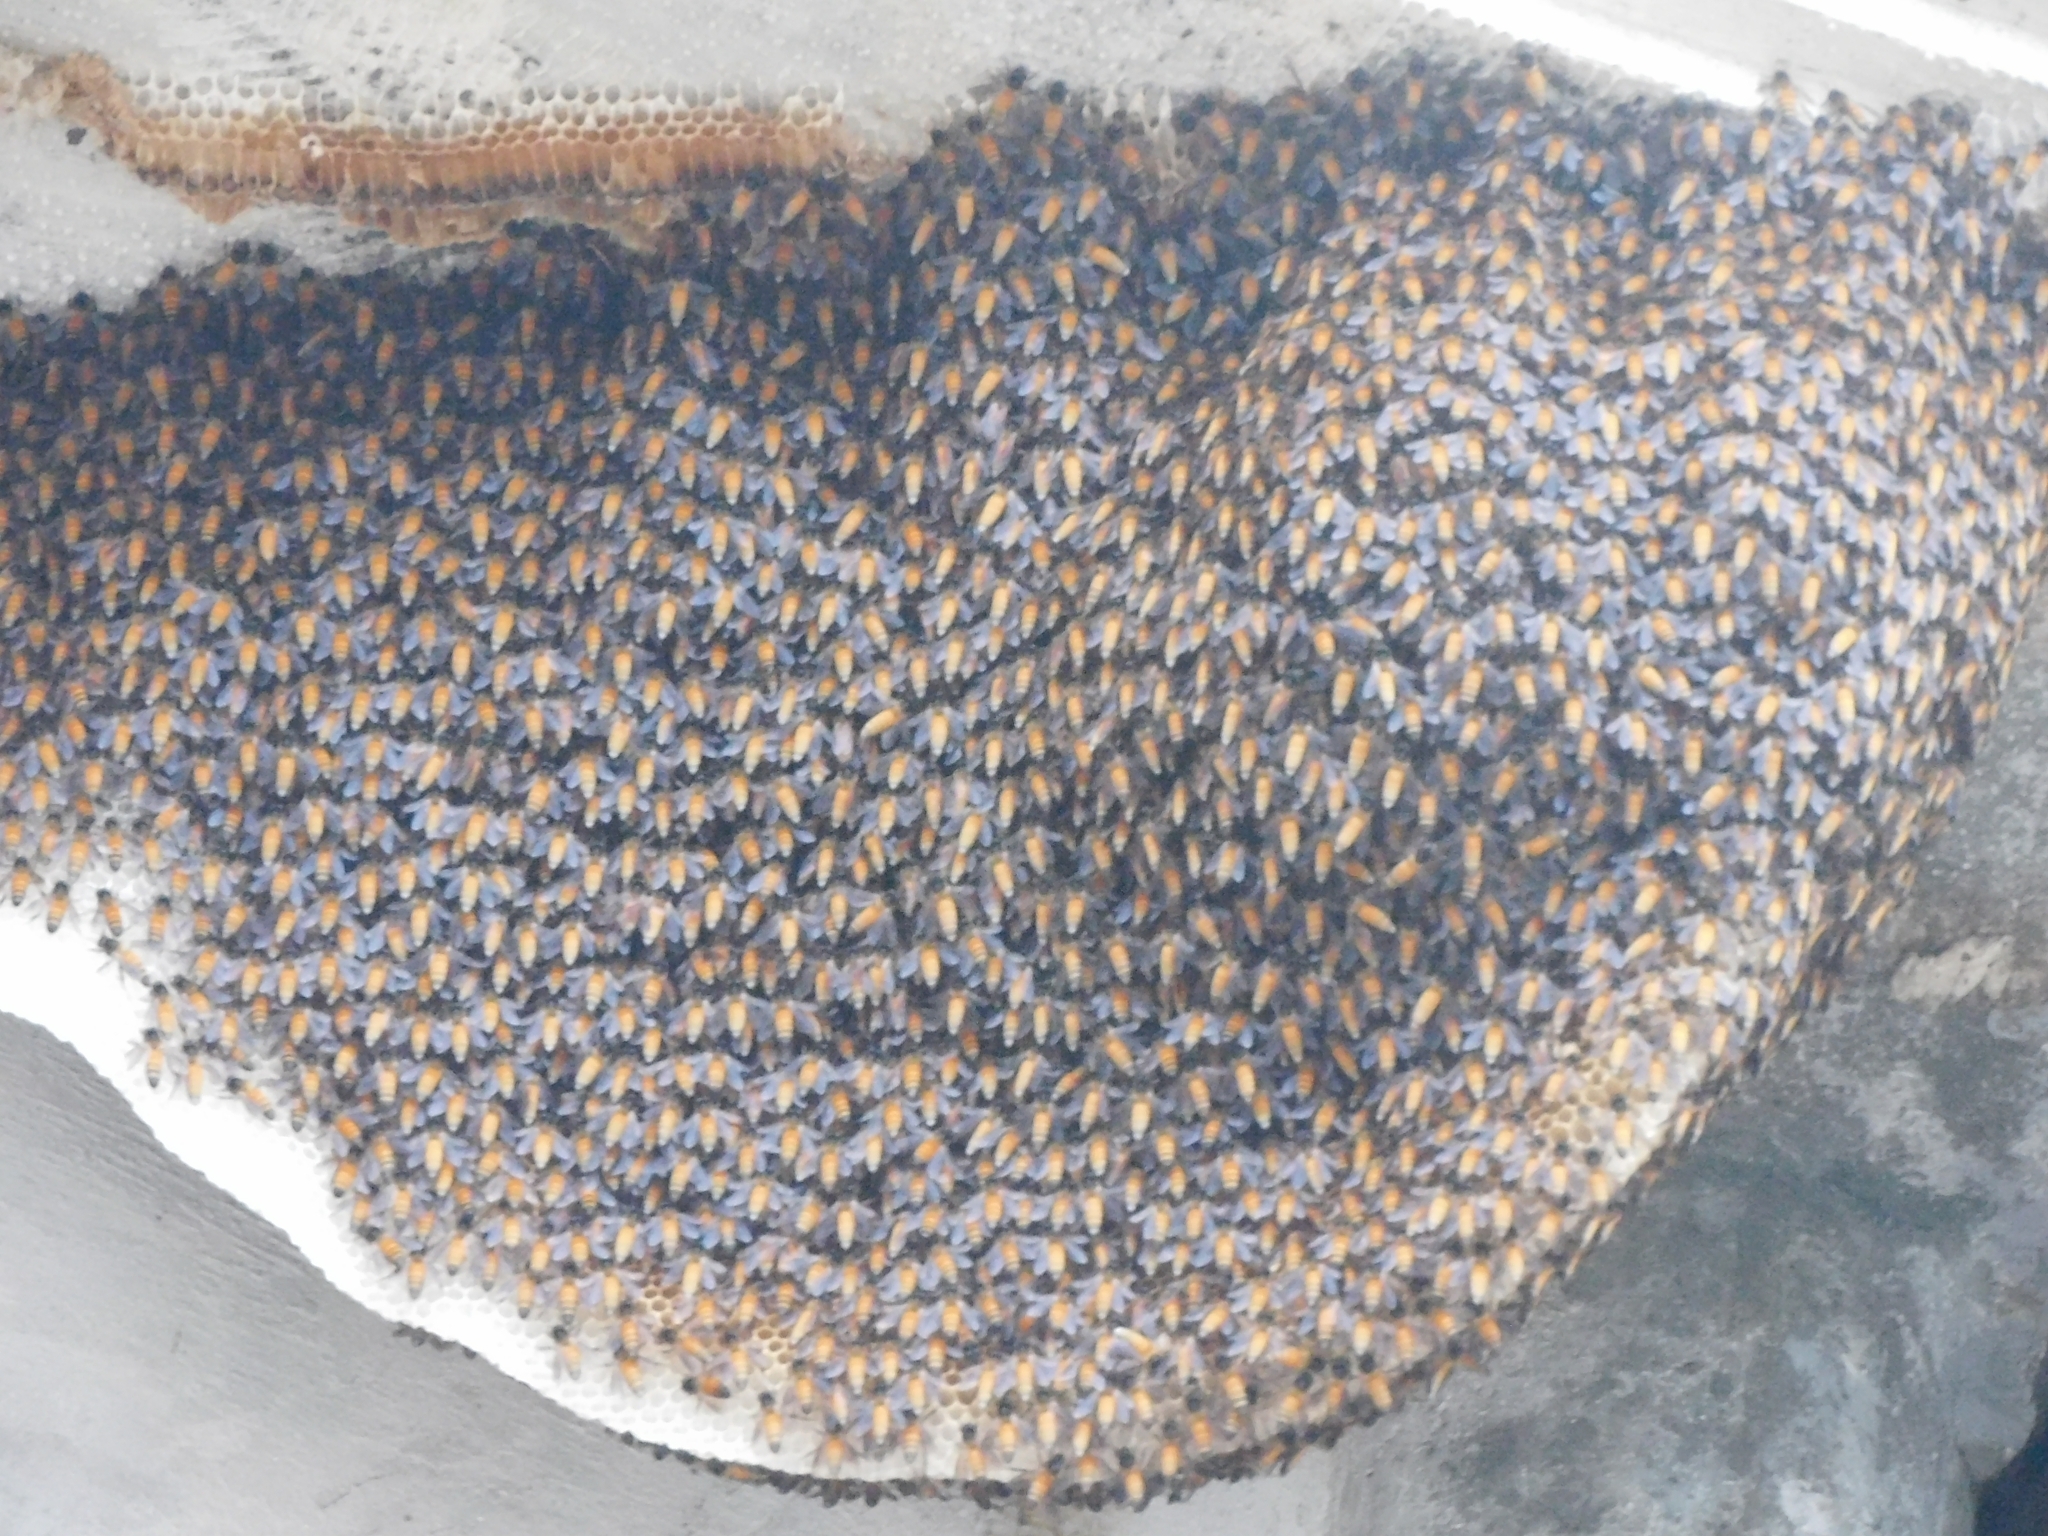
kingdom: Animalia
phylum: Arthropoda
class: Insecta
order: Hymenoptera
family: Apidae
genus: Apis
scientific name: Apis dorsata
